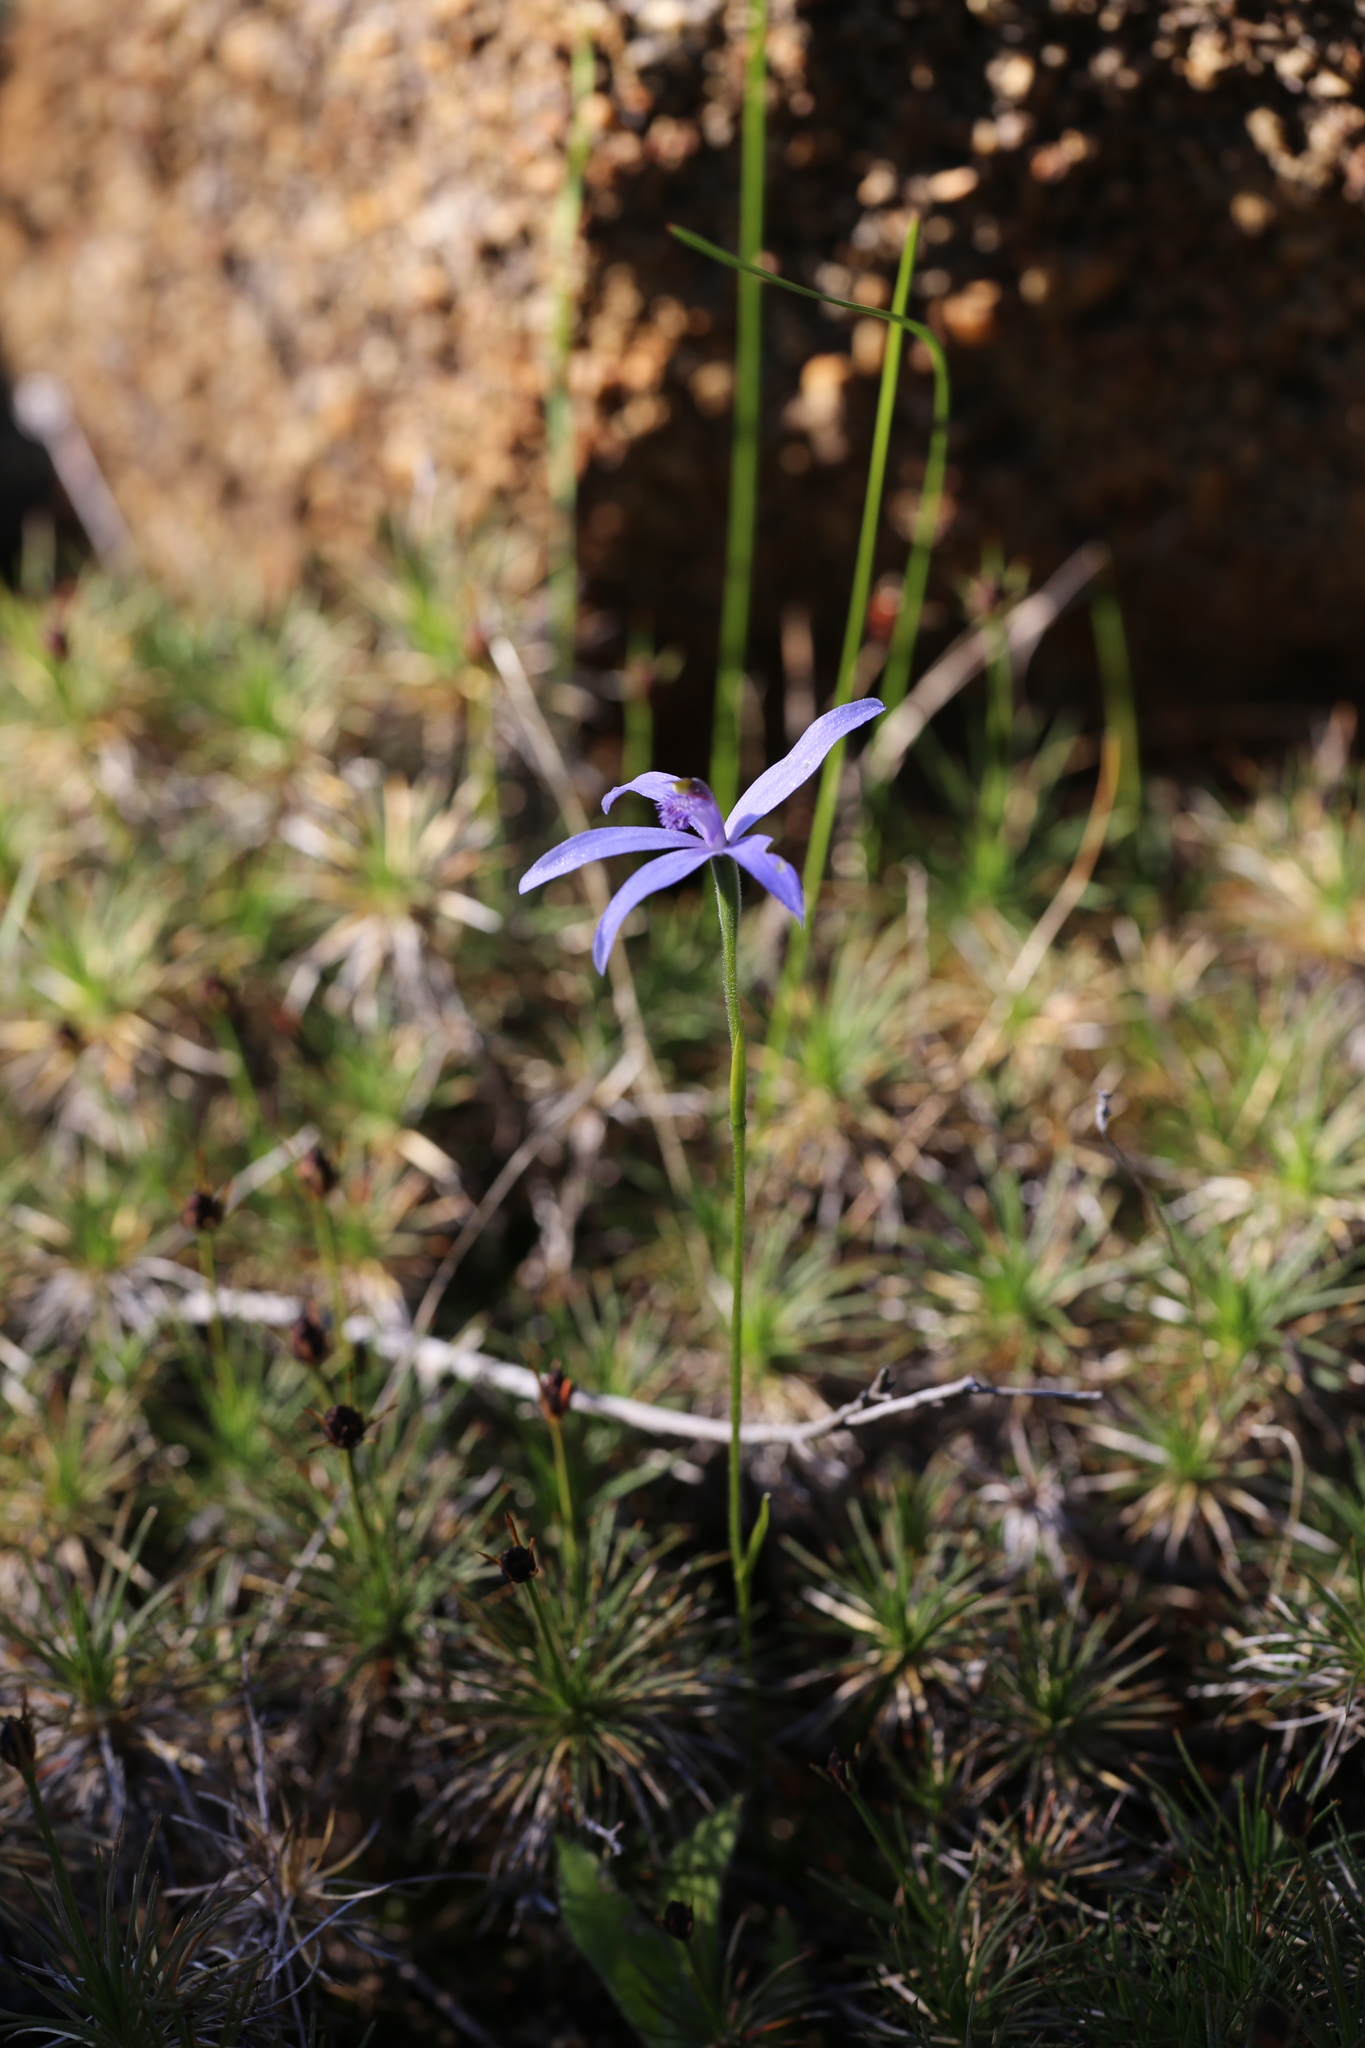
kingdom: Plantae
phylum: Tracheophyta
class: Liliopsida
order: Asparagales
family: Orchidaceae
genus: Pheladenia
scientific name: Pheladenia deformis
